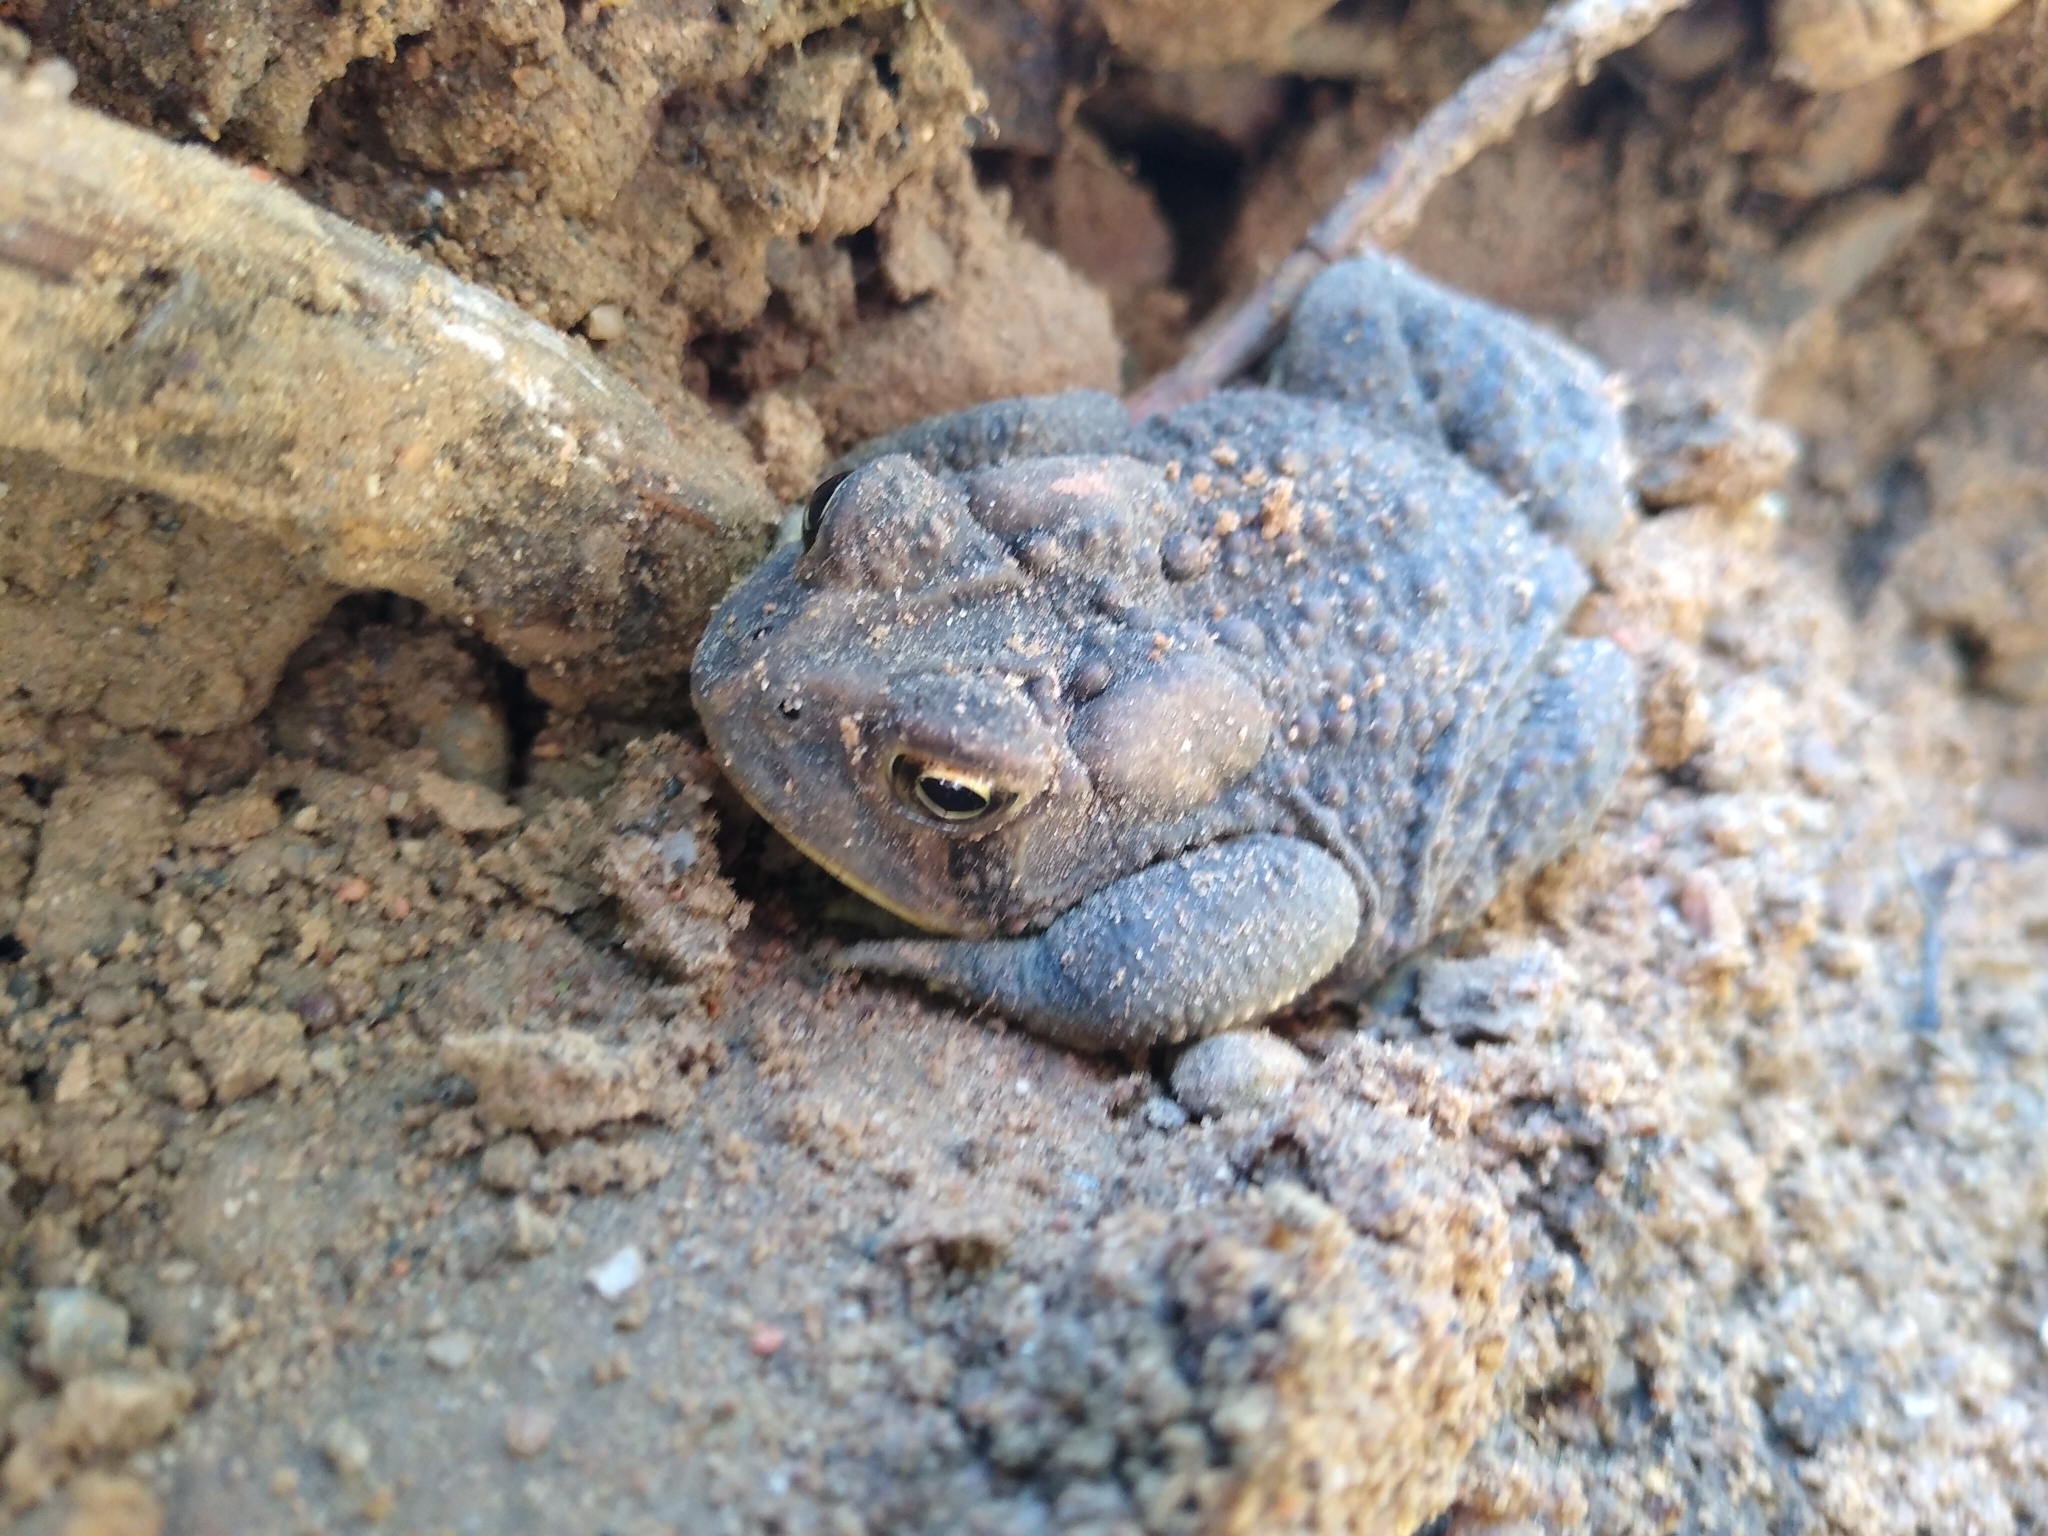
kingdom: Animalia
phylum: Chordata
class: Amphibia
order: Anura
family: Bufonidae
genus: Anaxyrus
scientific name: Anaxyrus americanus
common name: American toad
